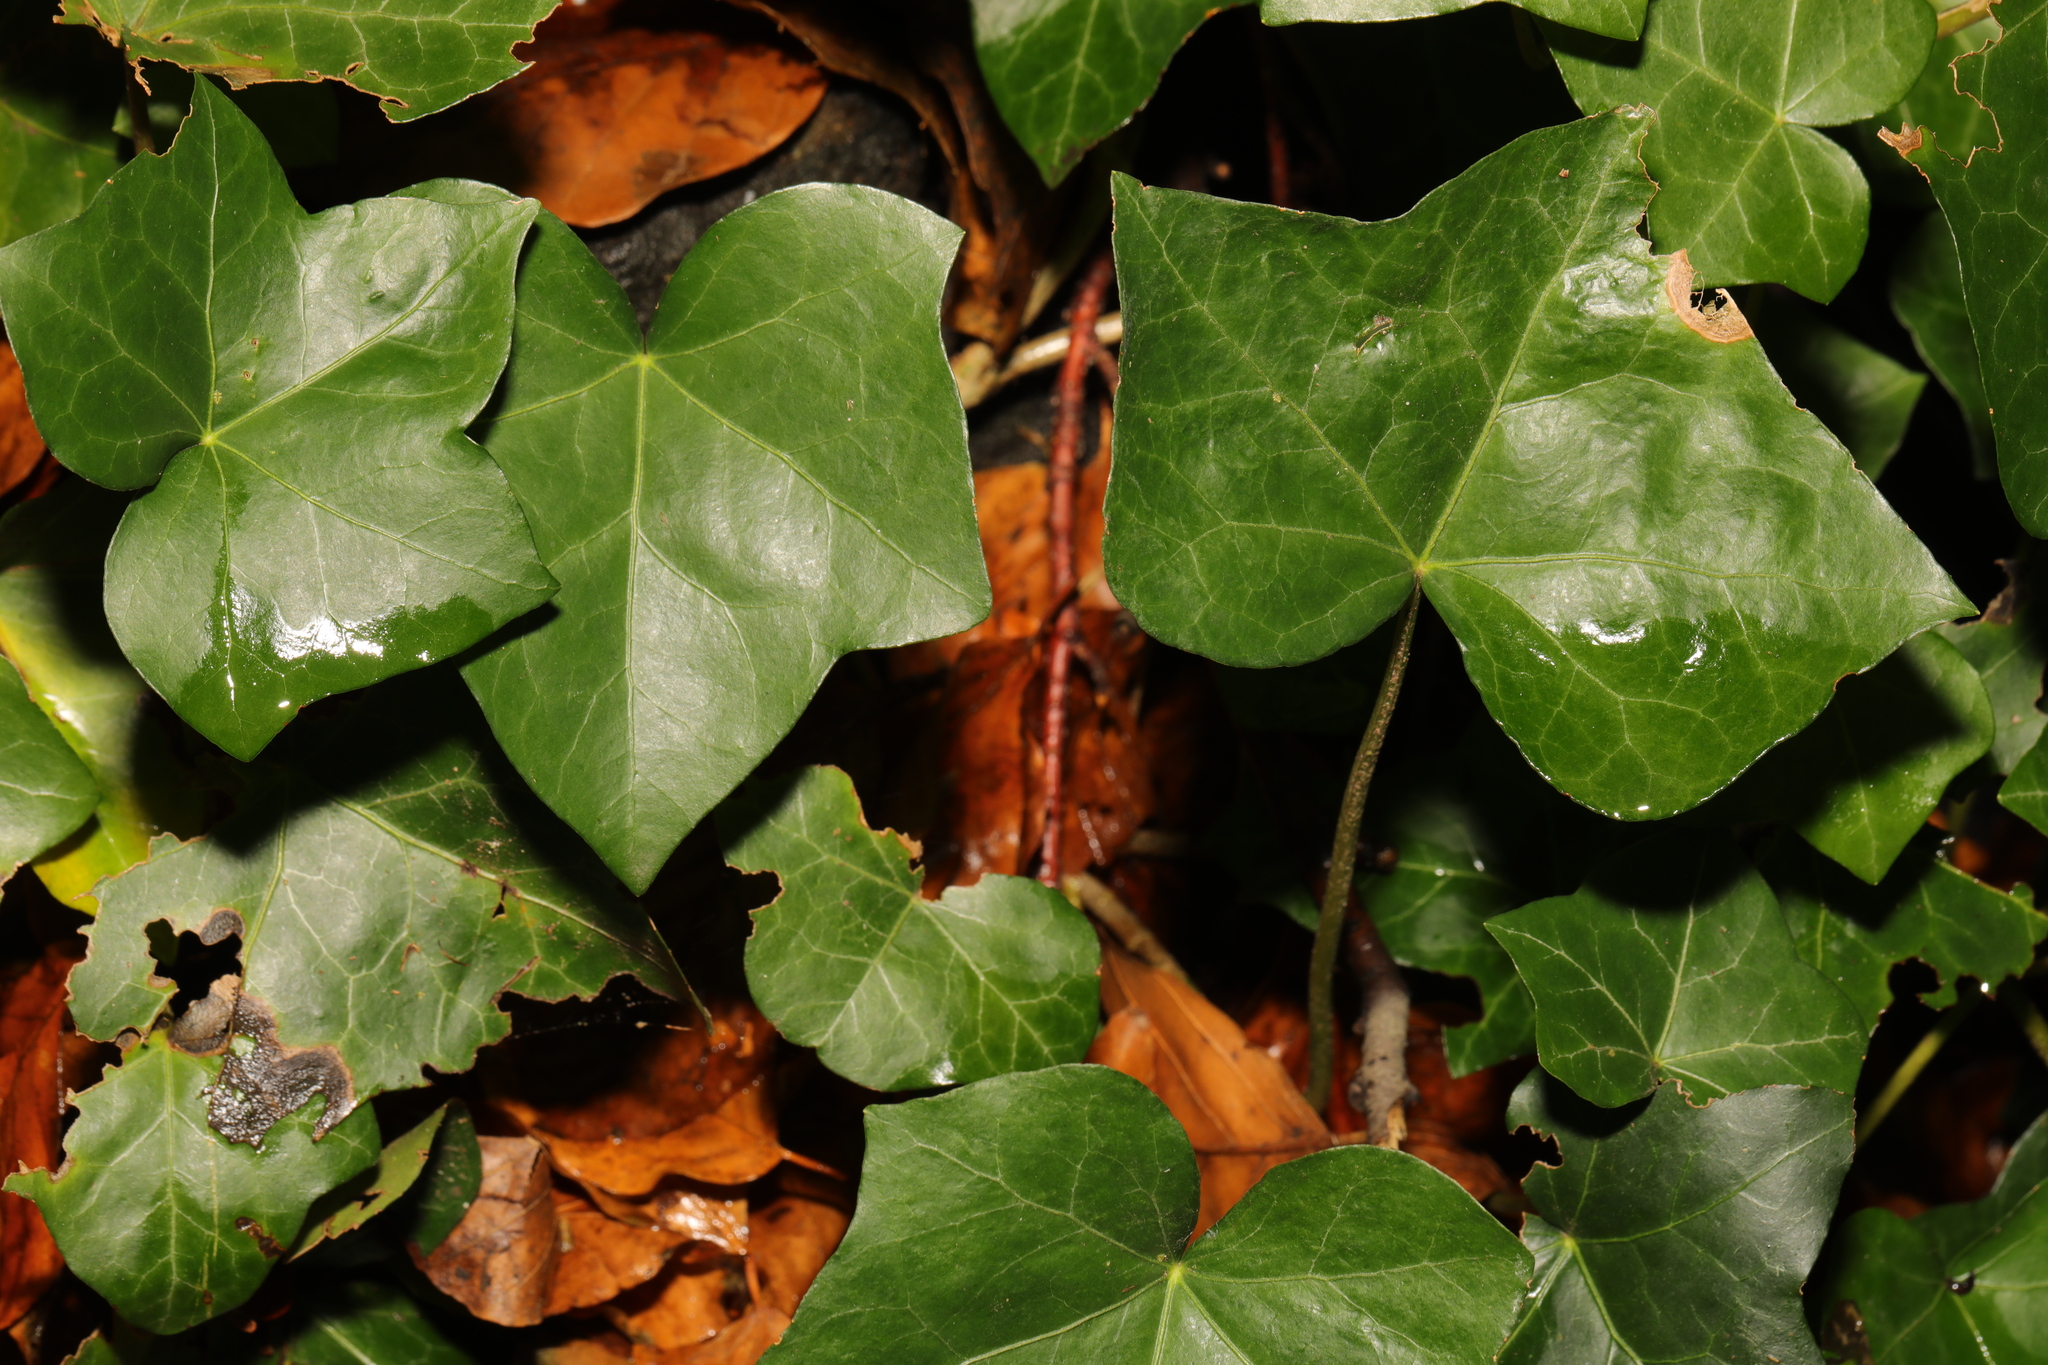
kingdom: Plantae
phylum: Tracheophyta
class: Magnoliopsida
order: Apiales
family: Araliaceae
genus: Hedera
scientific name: Hedera helix
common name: Ivy
